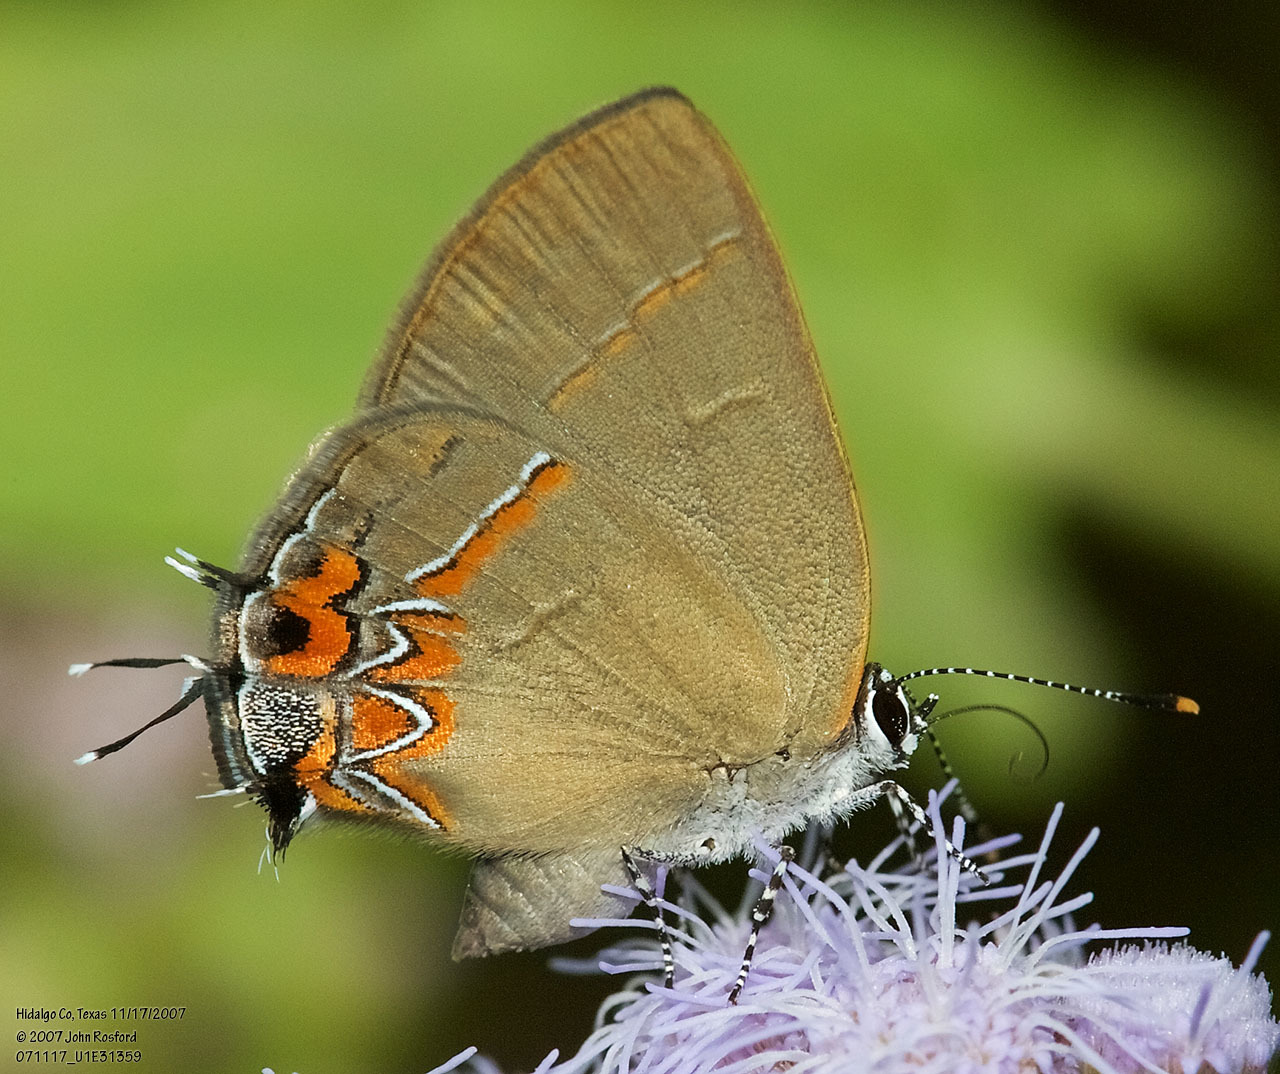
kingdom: Animalia
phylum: Arthropoda
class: Insecta
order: Lepidoptera
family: Lycaenidae
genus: Calycopis
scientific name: Calycopis isobeon
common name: Dusky-blue groundstreak
